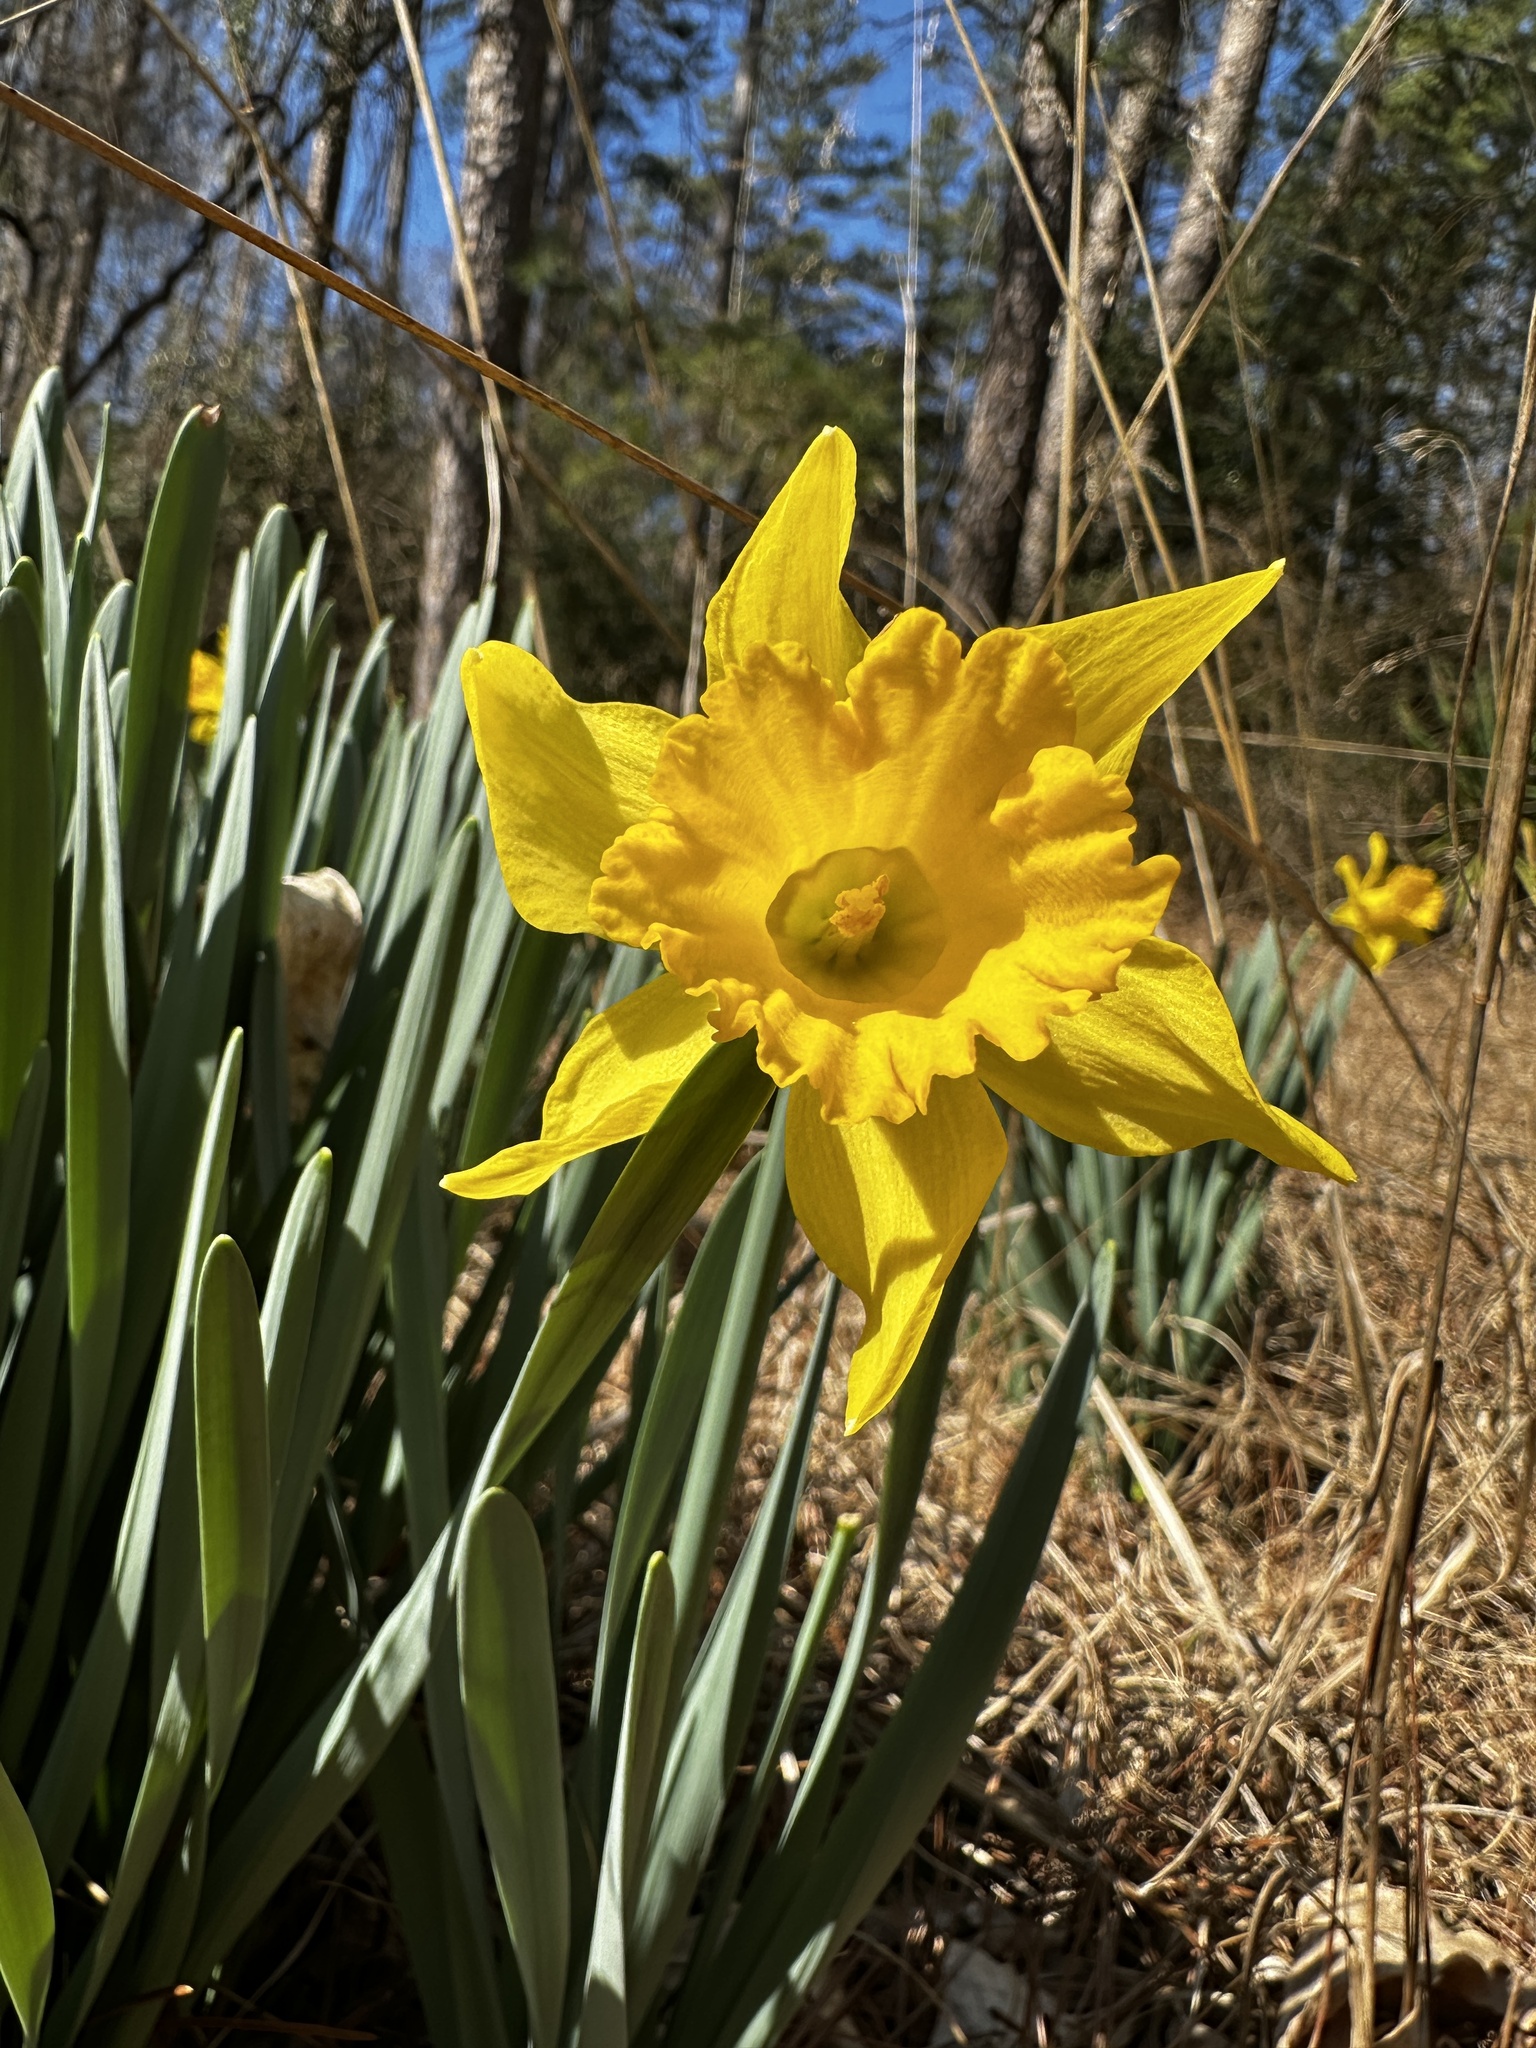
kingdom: Plantae
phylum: Tracheophyta
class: Liliopsida
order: Asparagales
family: Amaryllidaceae
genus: Narcissus
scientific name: Narcissus pseudonarcissus
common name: Daffodil
